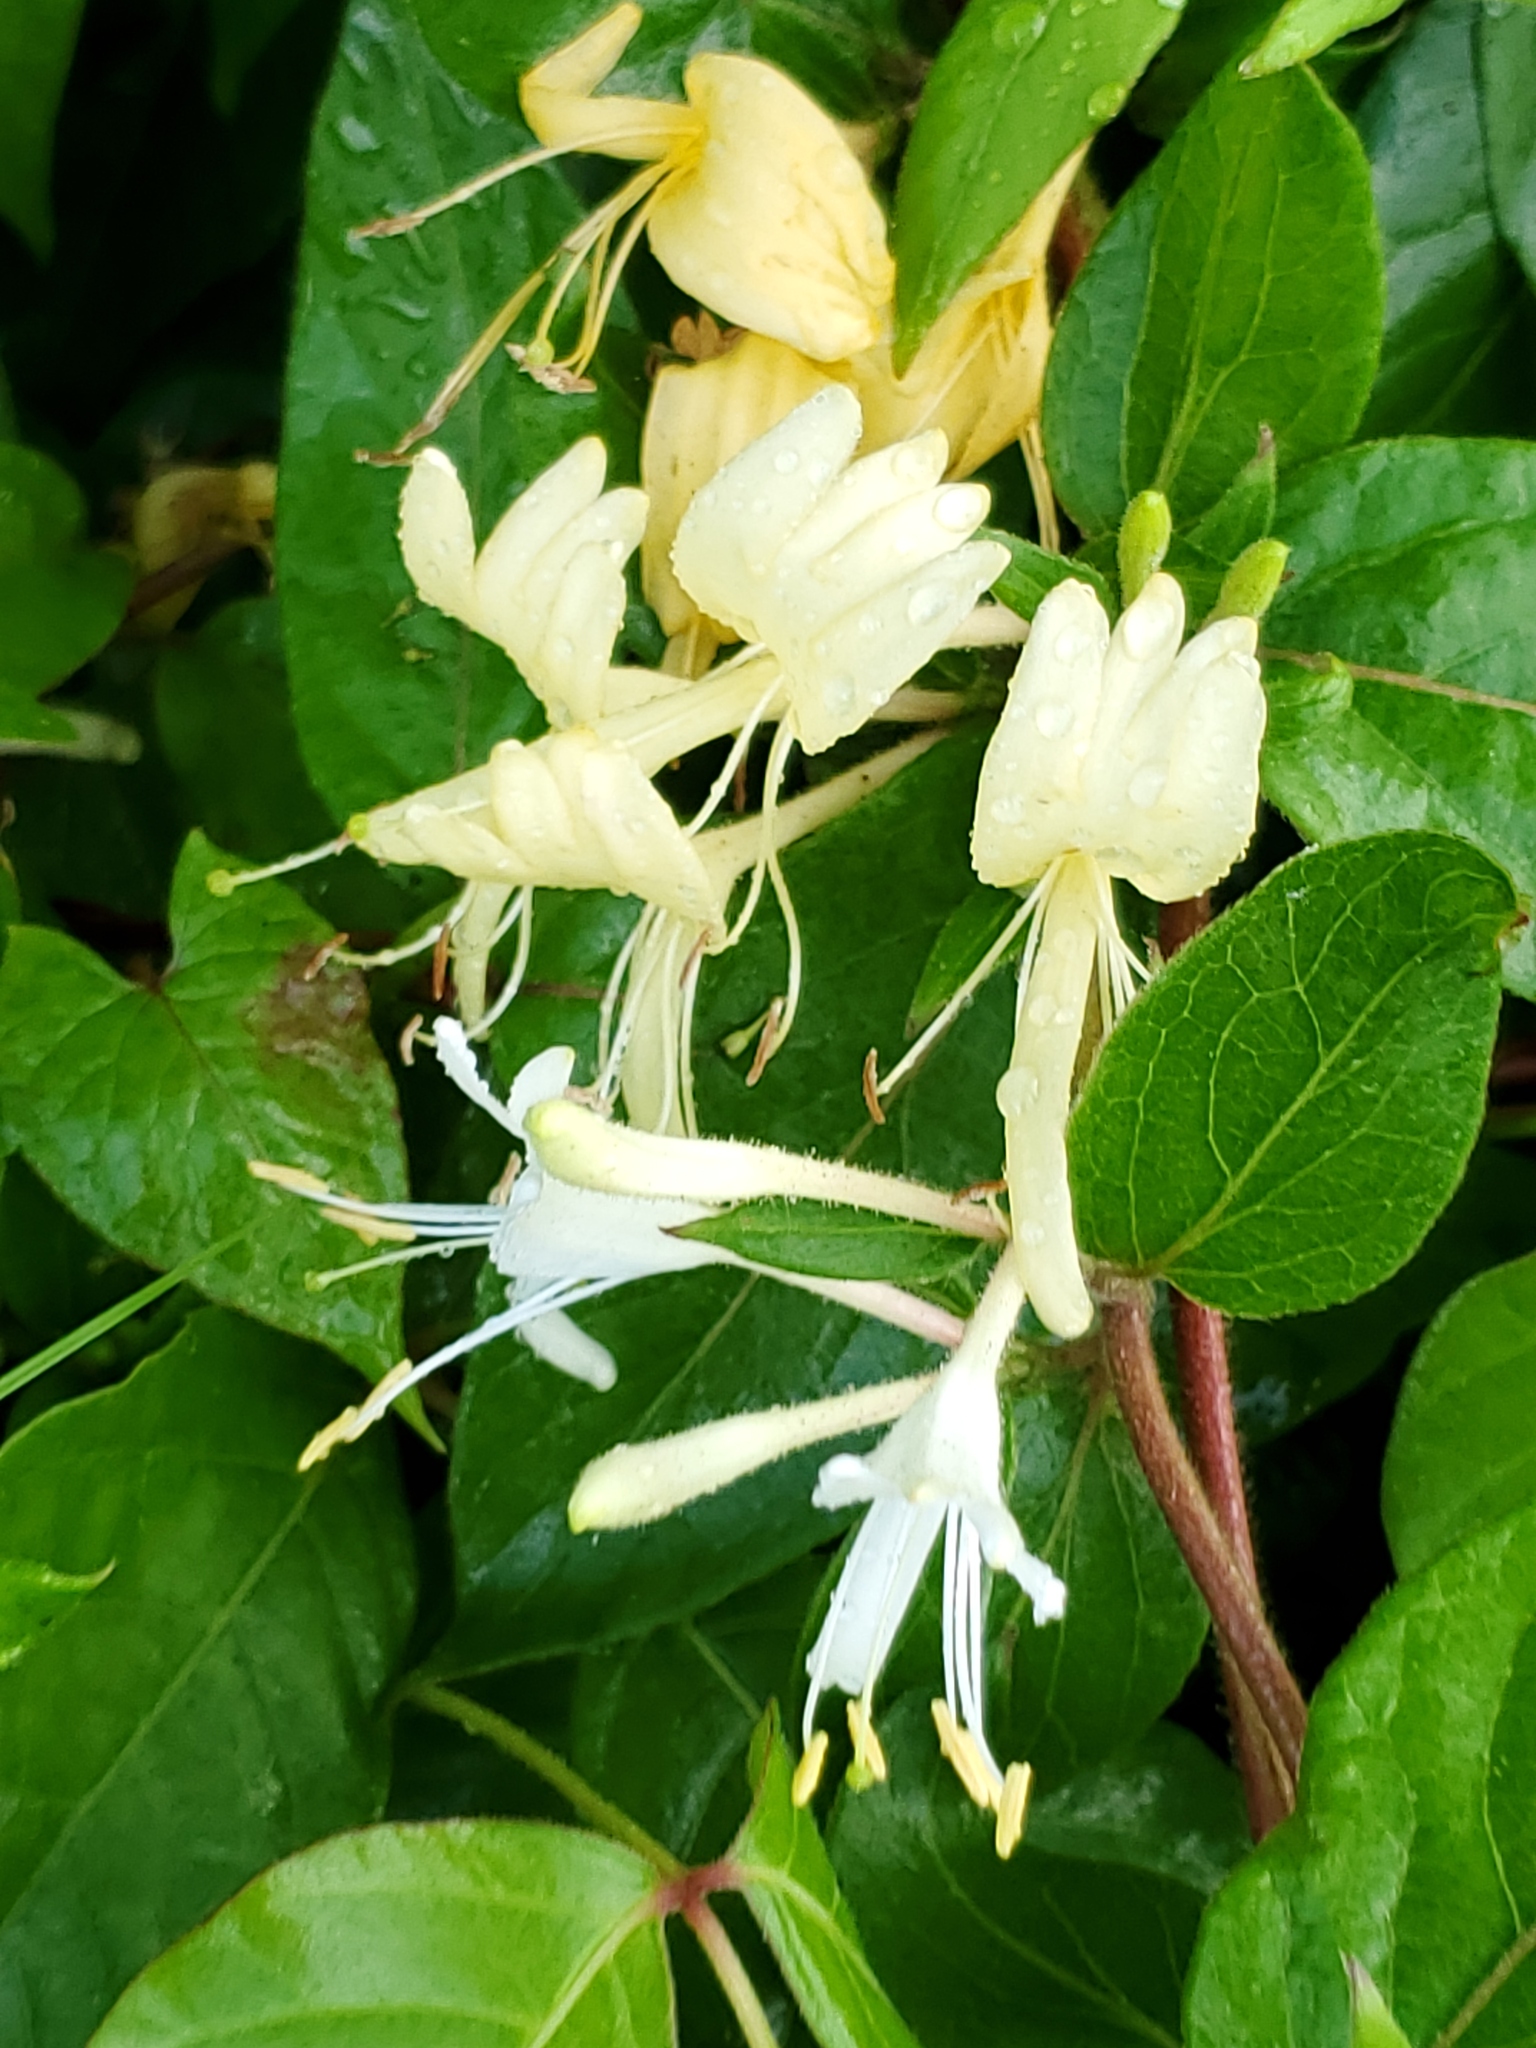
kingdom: Plantae
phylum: Tracheophyta
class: Magnoliopsida
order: Dipsacales
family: Caprifoliaceae
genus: Lonicera
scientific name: Lonicera japonica
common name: Japanese honeysuckle
